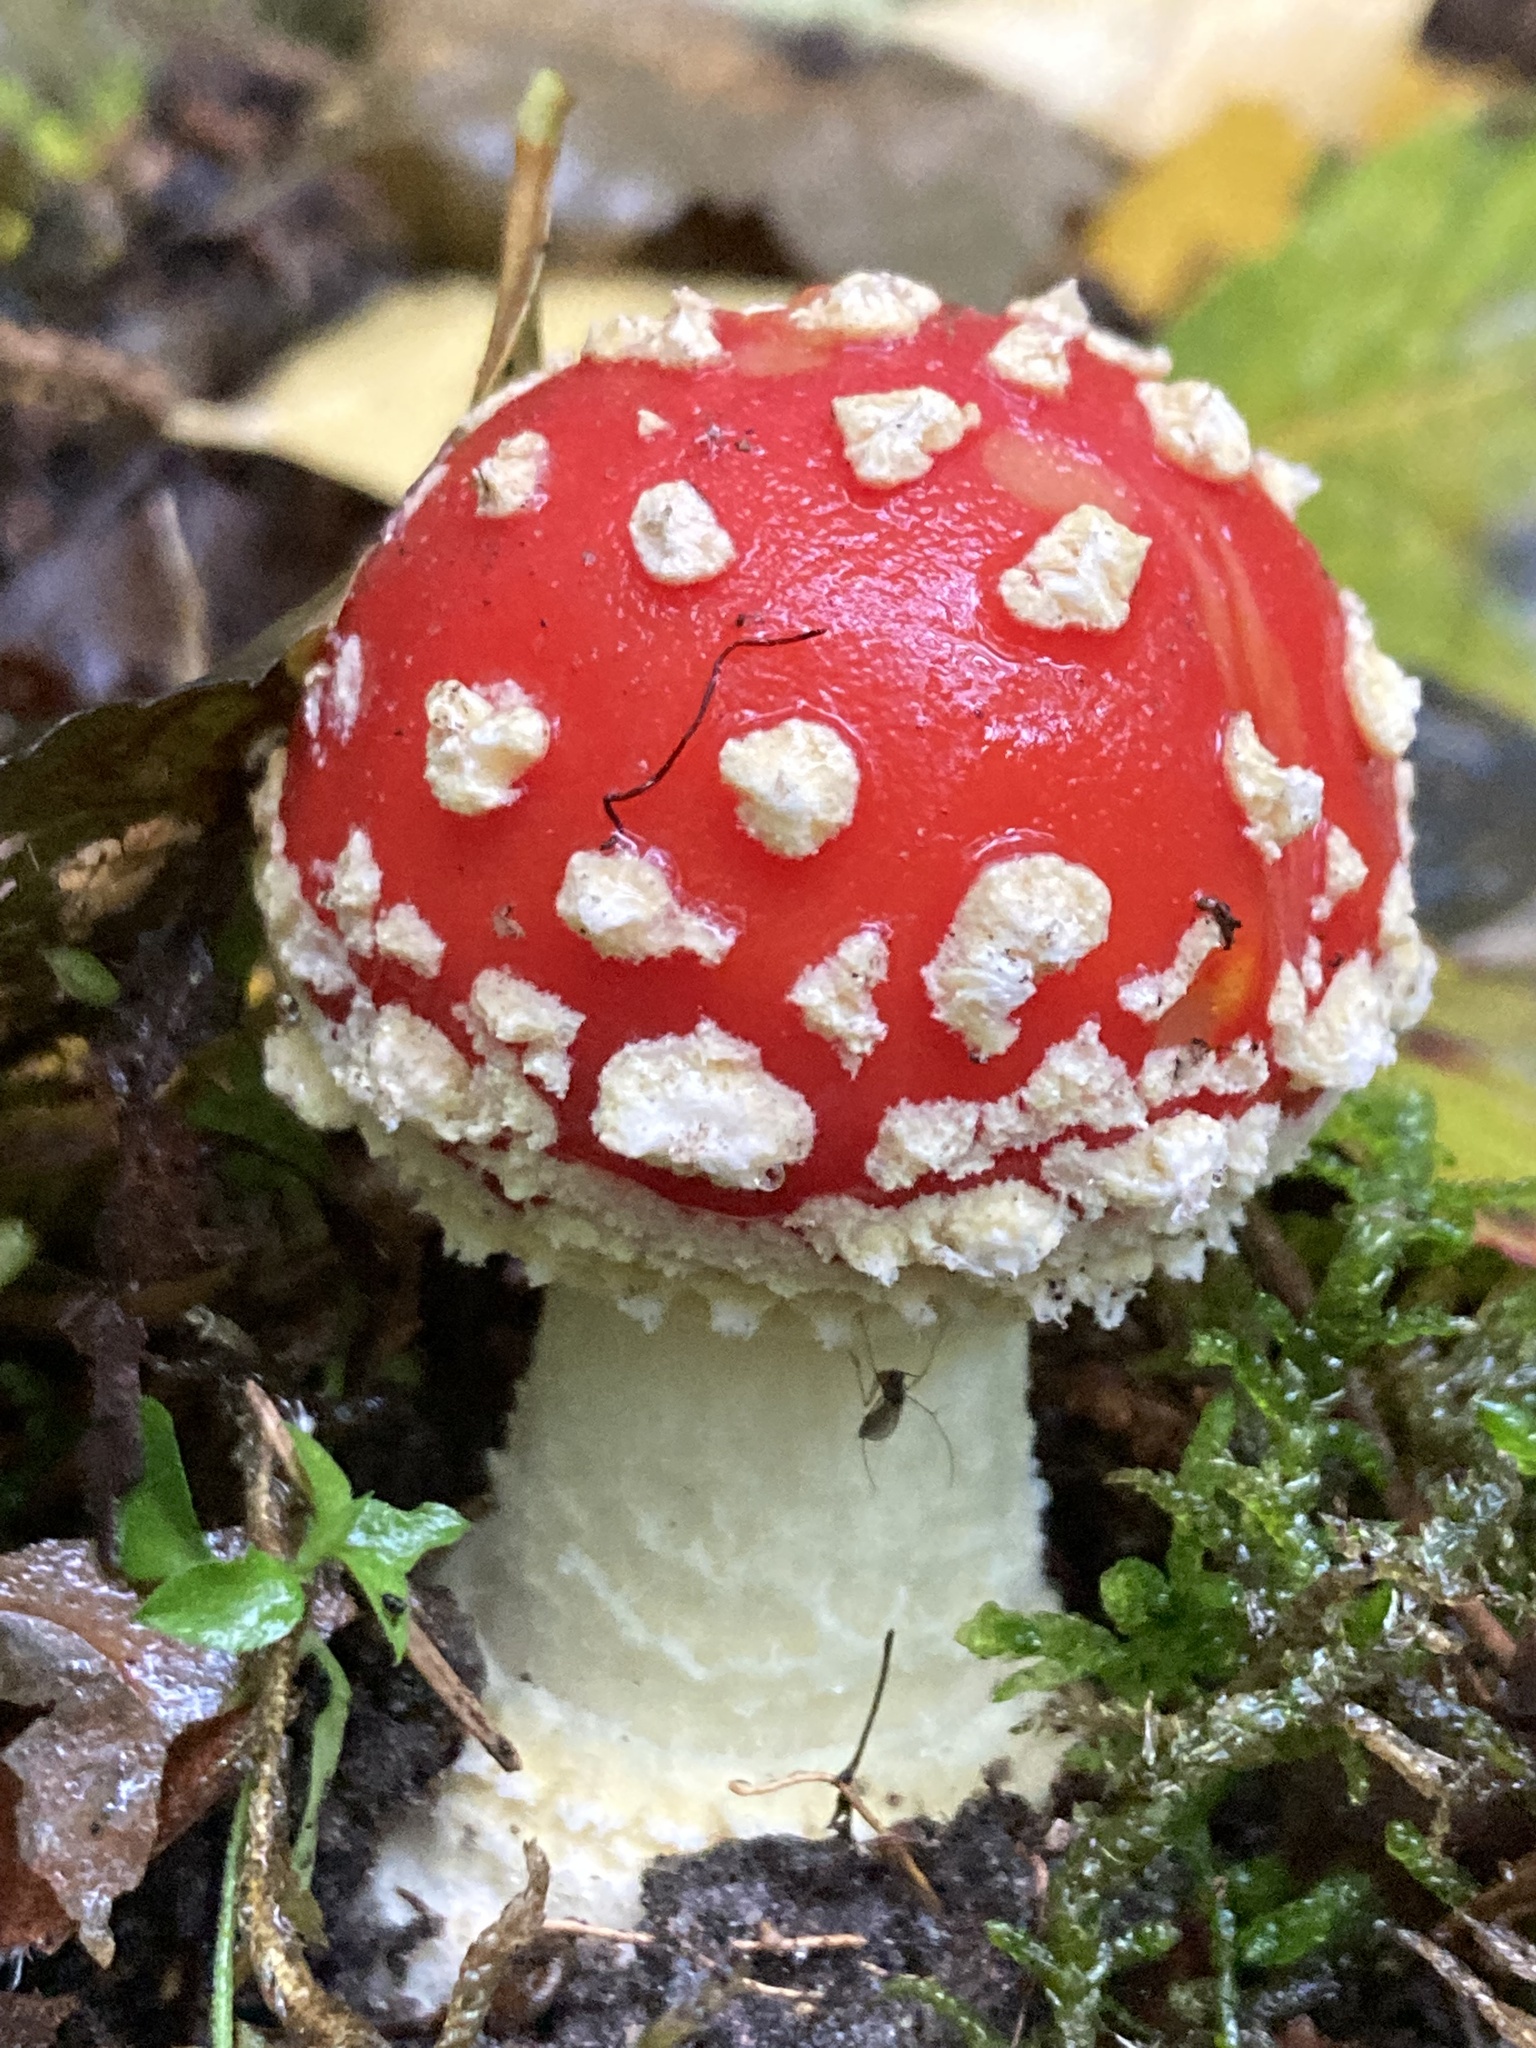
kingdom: Fungi
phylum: Basidiomycota
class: Agaricomycetes
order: Agaricales
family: Amanitaceae
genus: Amanita
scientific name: Amanita muscaria
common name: Fly agaric
